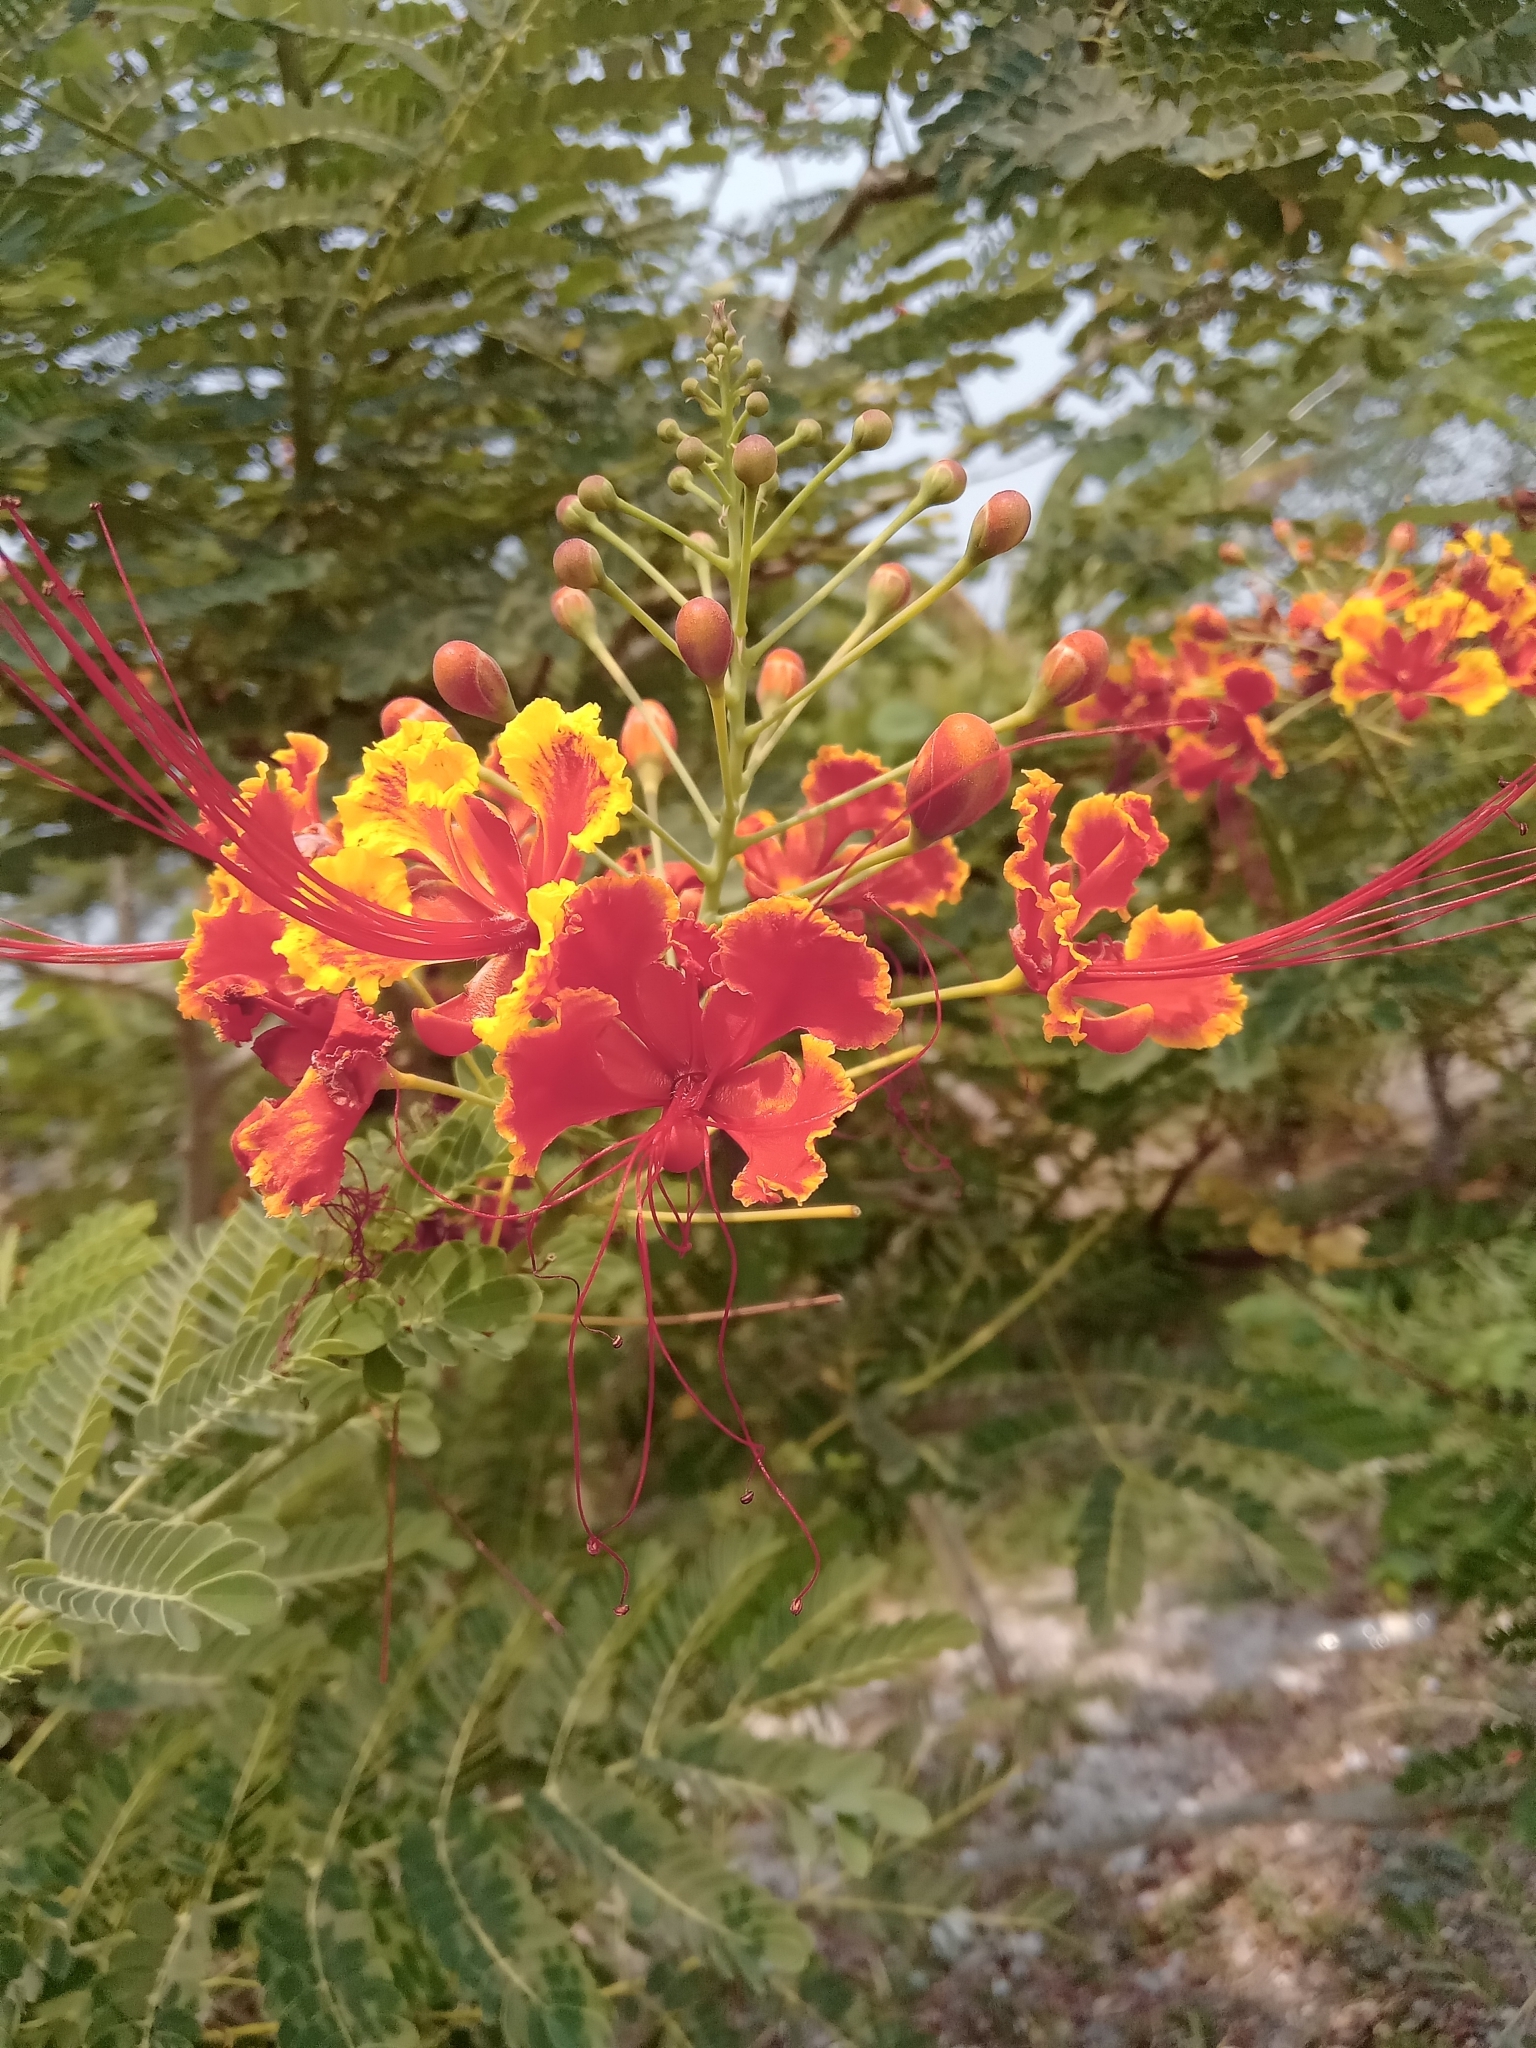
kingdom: Plantae
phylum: Tracheophyta
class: Magnoliopsida
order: Fabales
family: Fabaceae
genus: Caesalpinia
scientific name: Caesalpinia pulcherrima
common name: Pride-of-barbados
